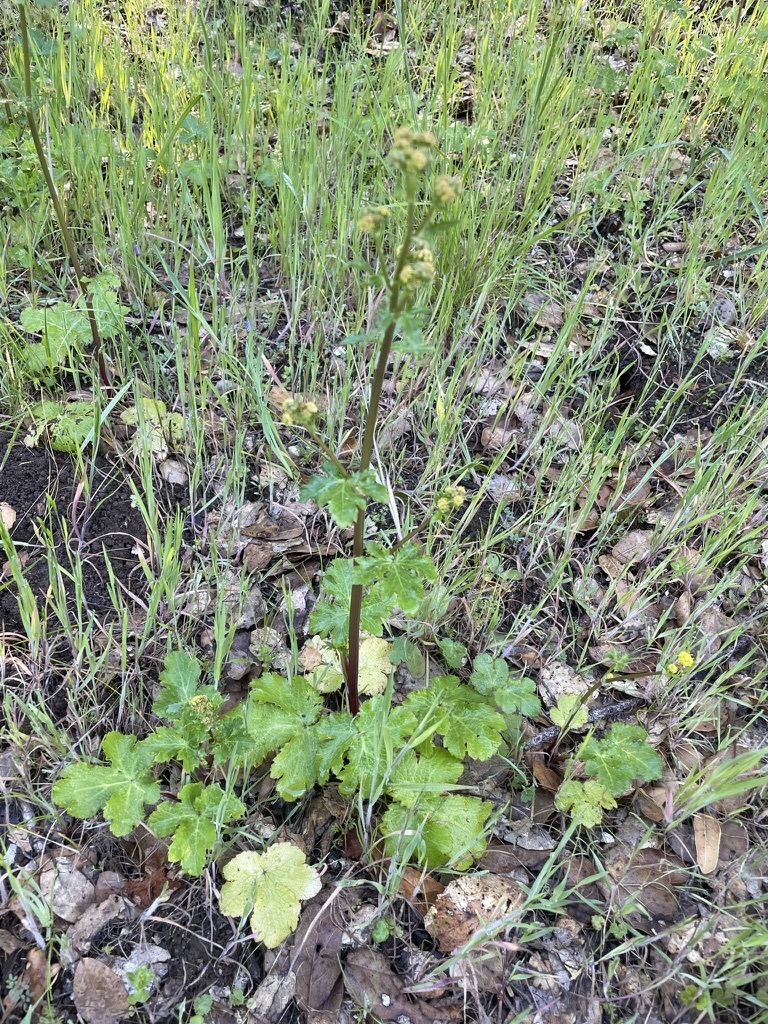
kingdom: Plantae
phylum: Tracheophyta
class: Magnoliopsida
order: Apiales
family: Apiaceae
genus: Sanicula
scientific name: Sanicula crassicaulis
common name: Western snakeroot
